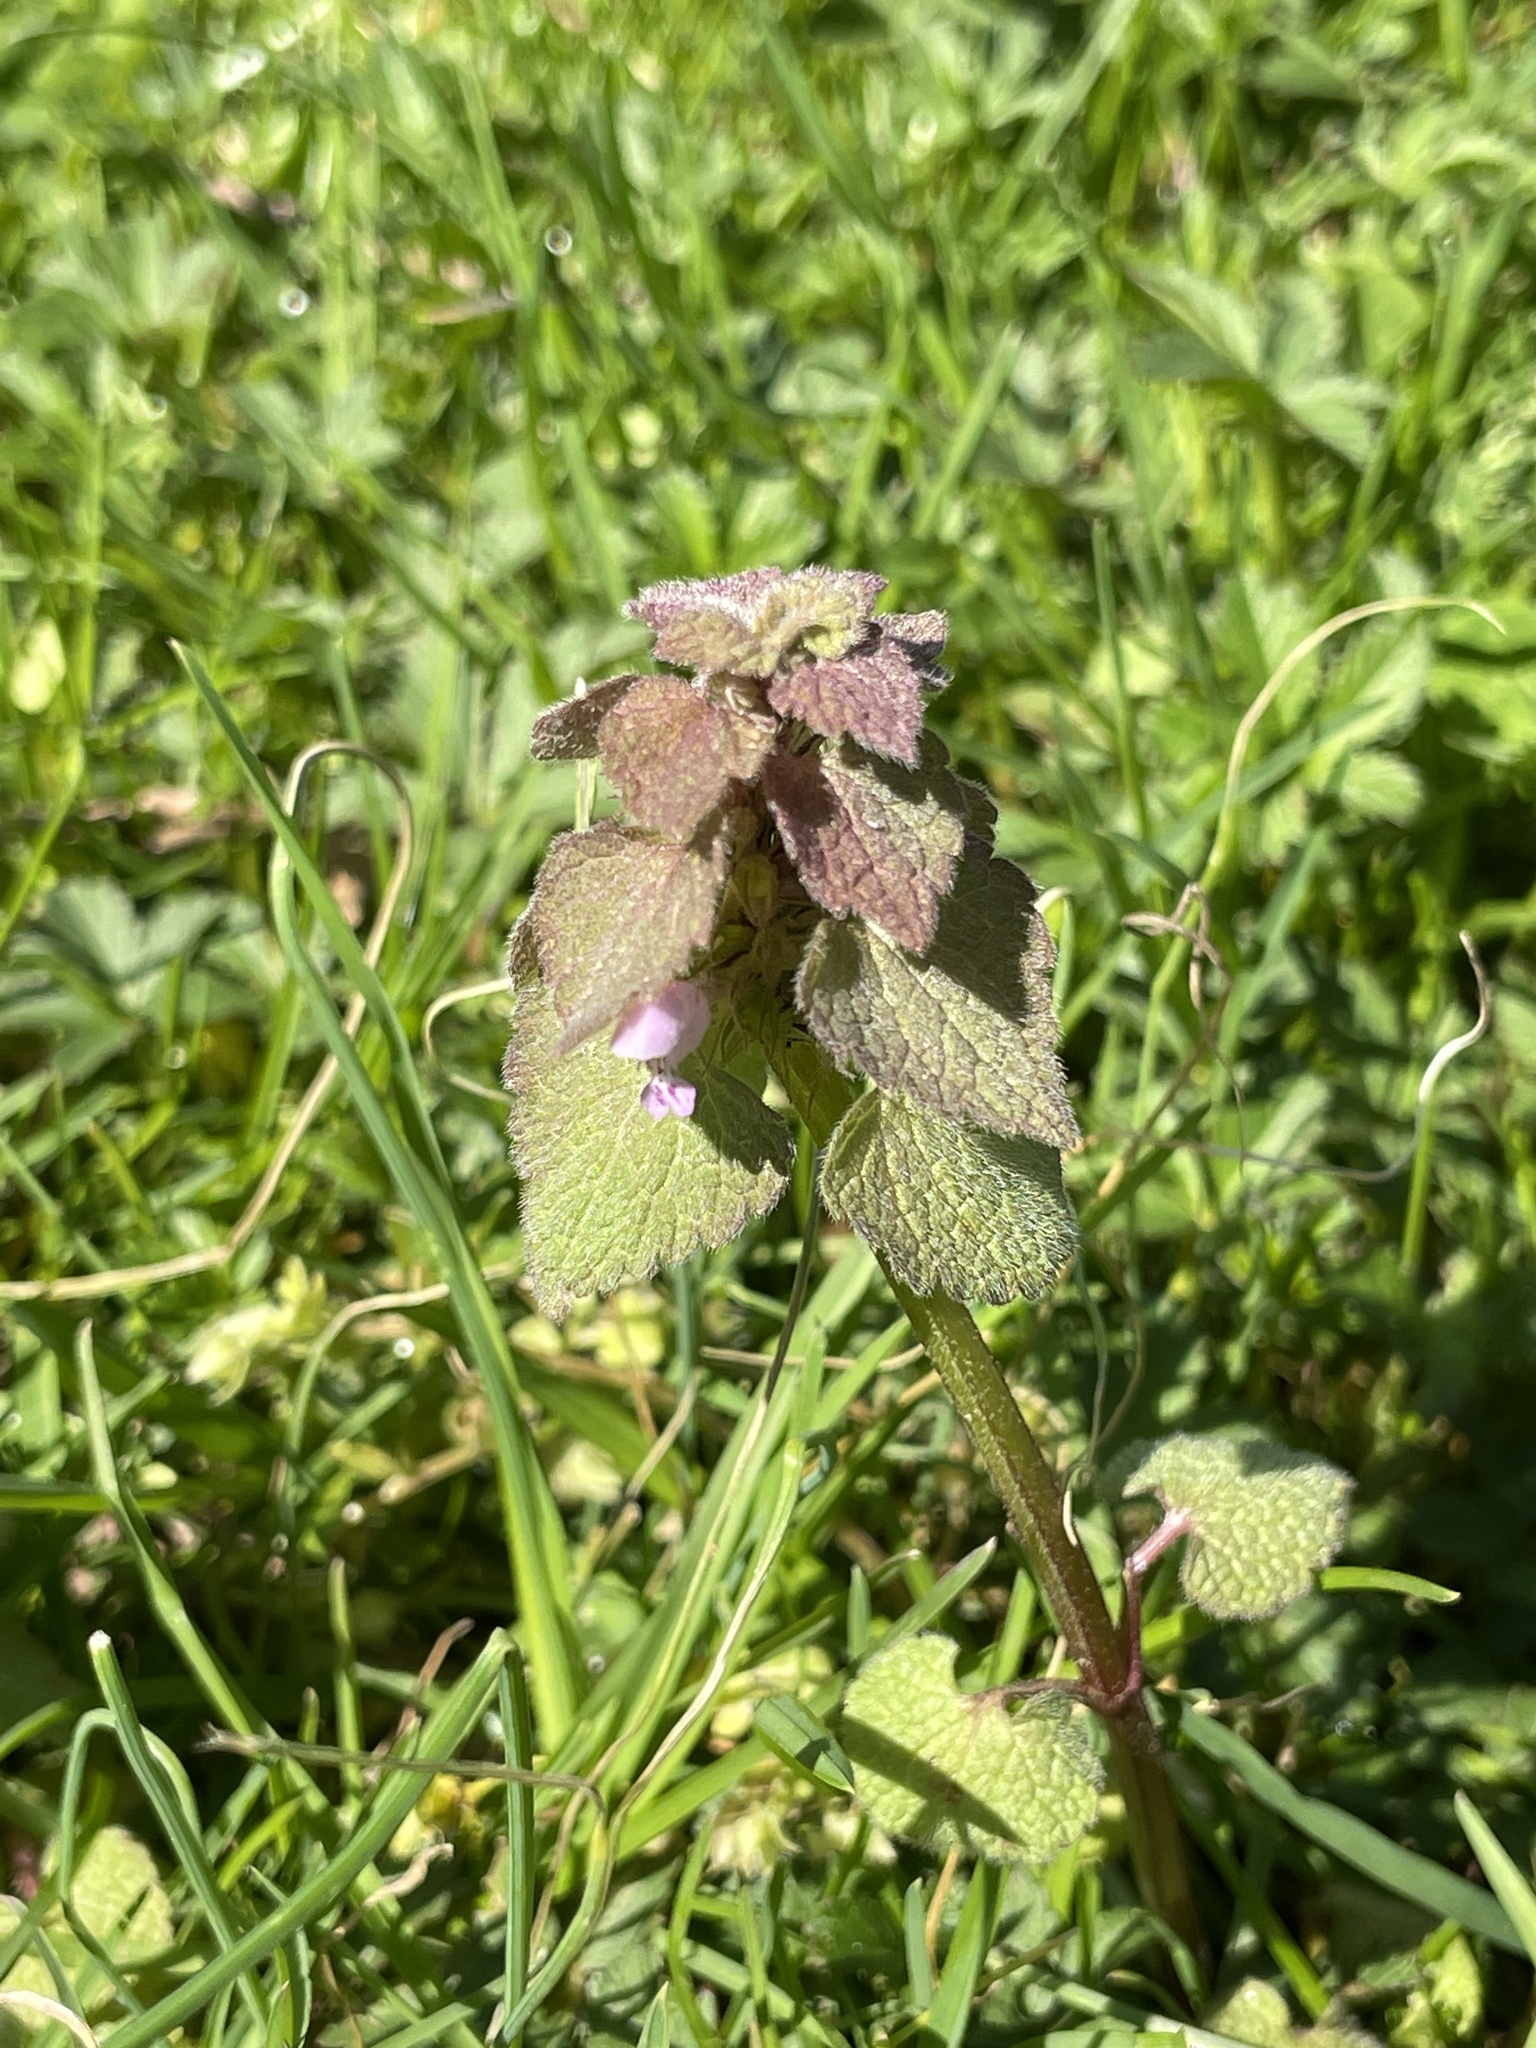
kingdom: Plantae
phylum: Tracheophyta
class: Magnoliopsida
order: Lamiales
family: Lamiaceae
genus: Lamium
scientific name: Lamium purpureum
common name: Red dead-nettle
